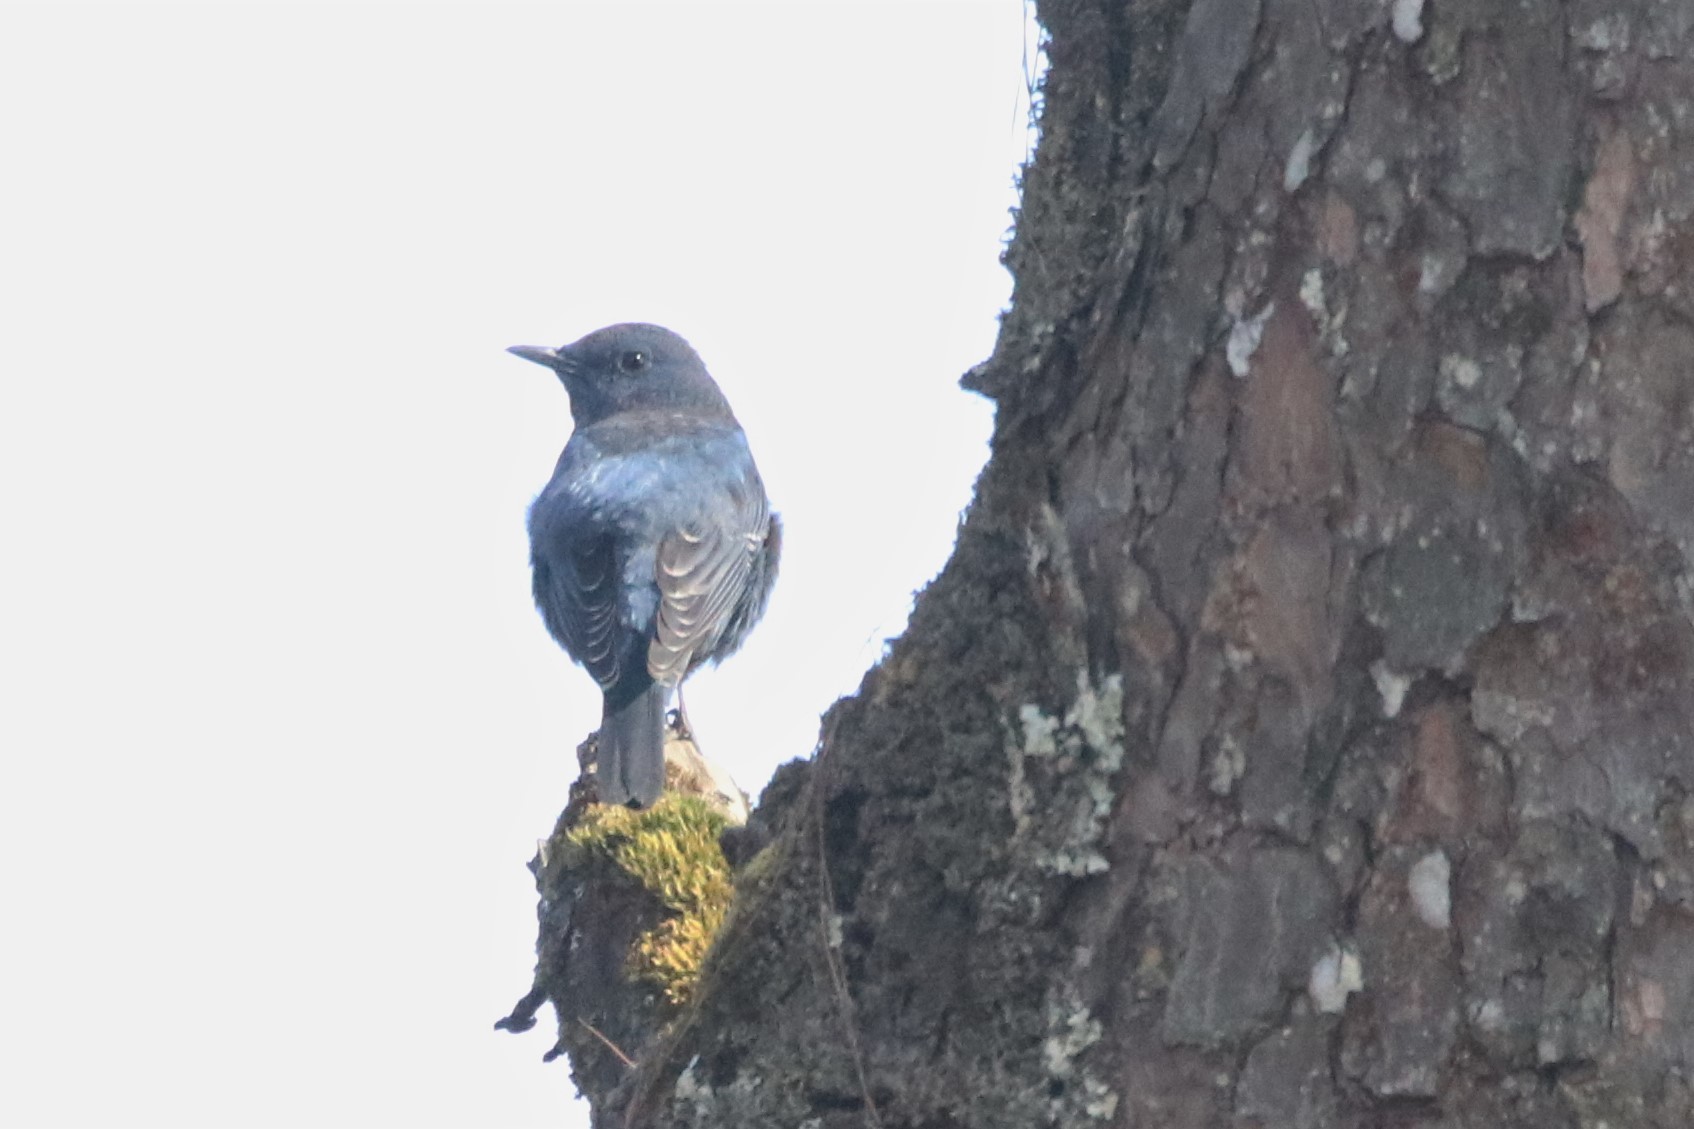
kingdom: Animalia
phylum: Chordata
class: Aves
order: Passeriformes
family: Muscicapidae
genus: Monticola
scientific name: Monticola solitarius
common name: Blue rock thrush
